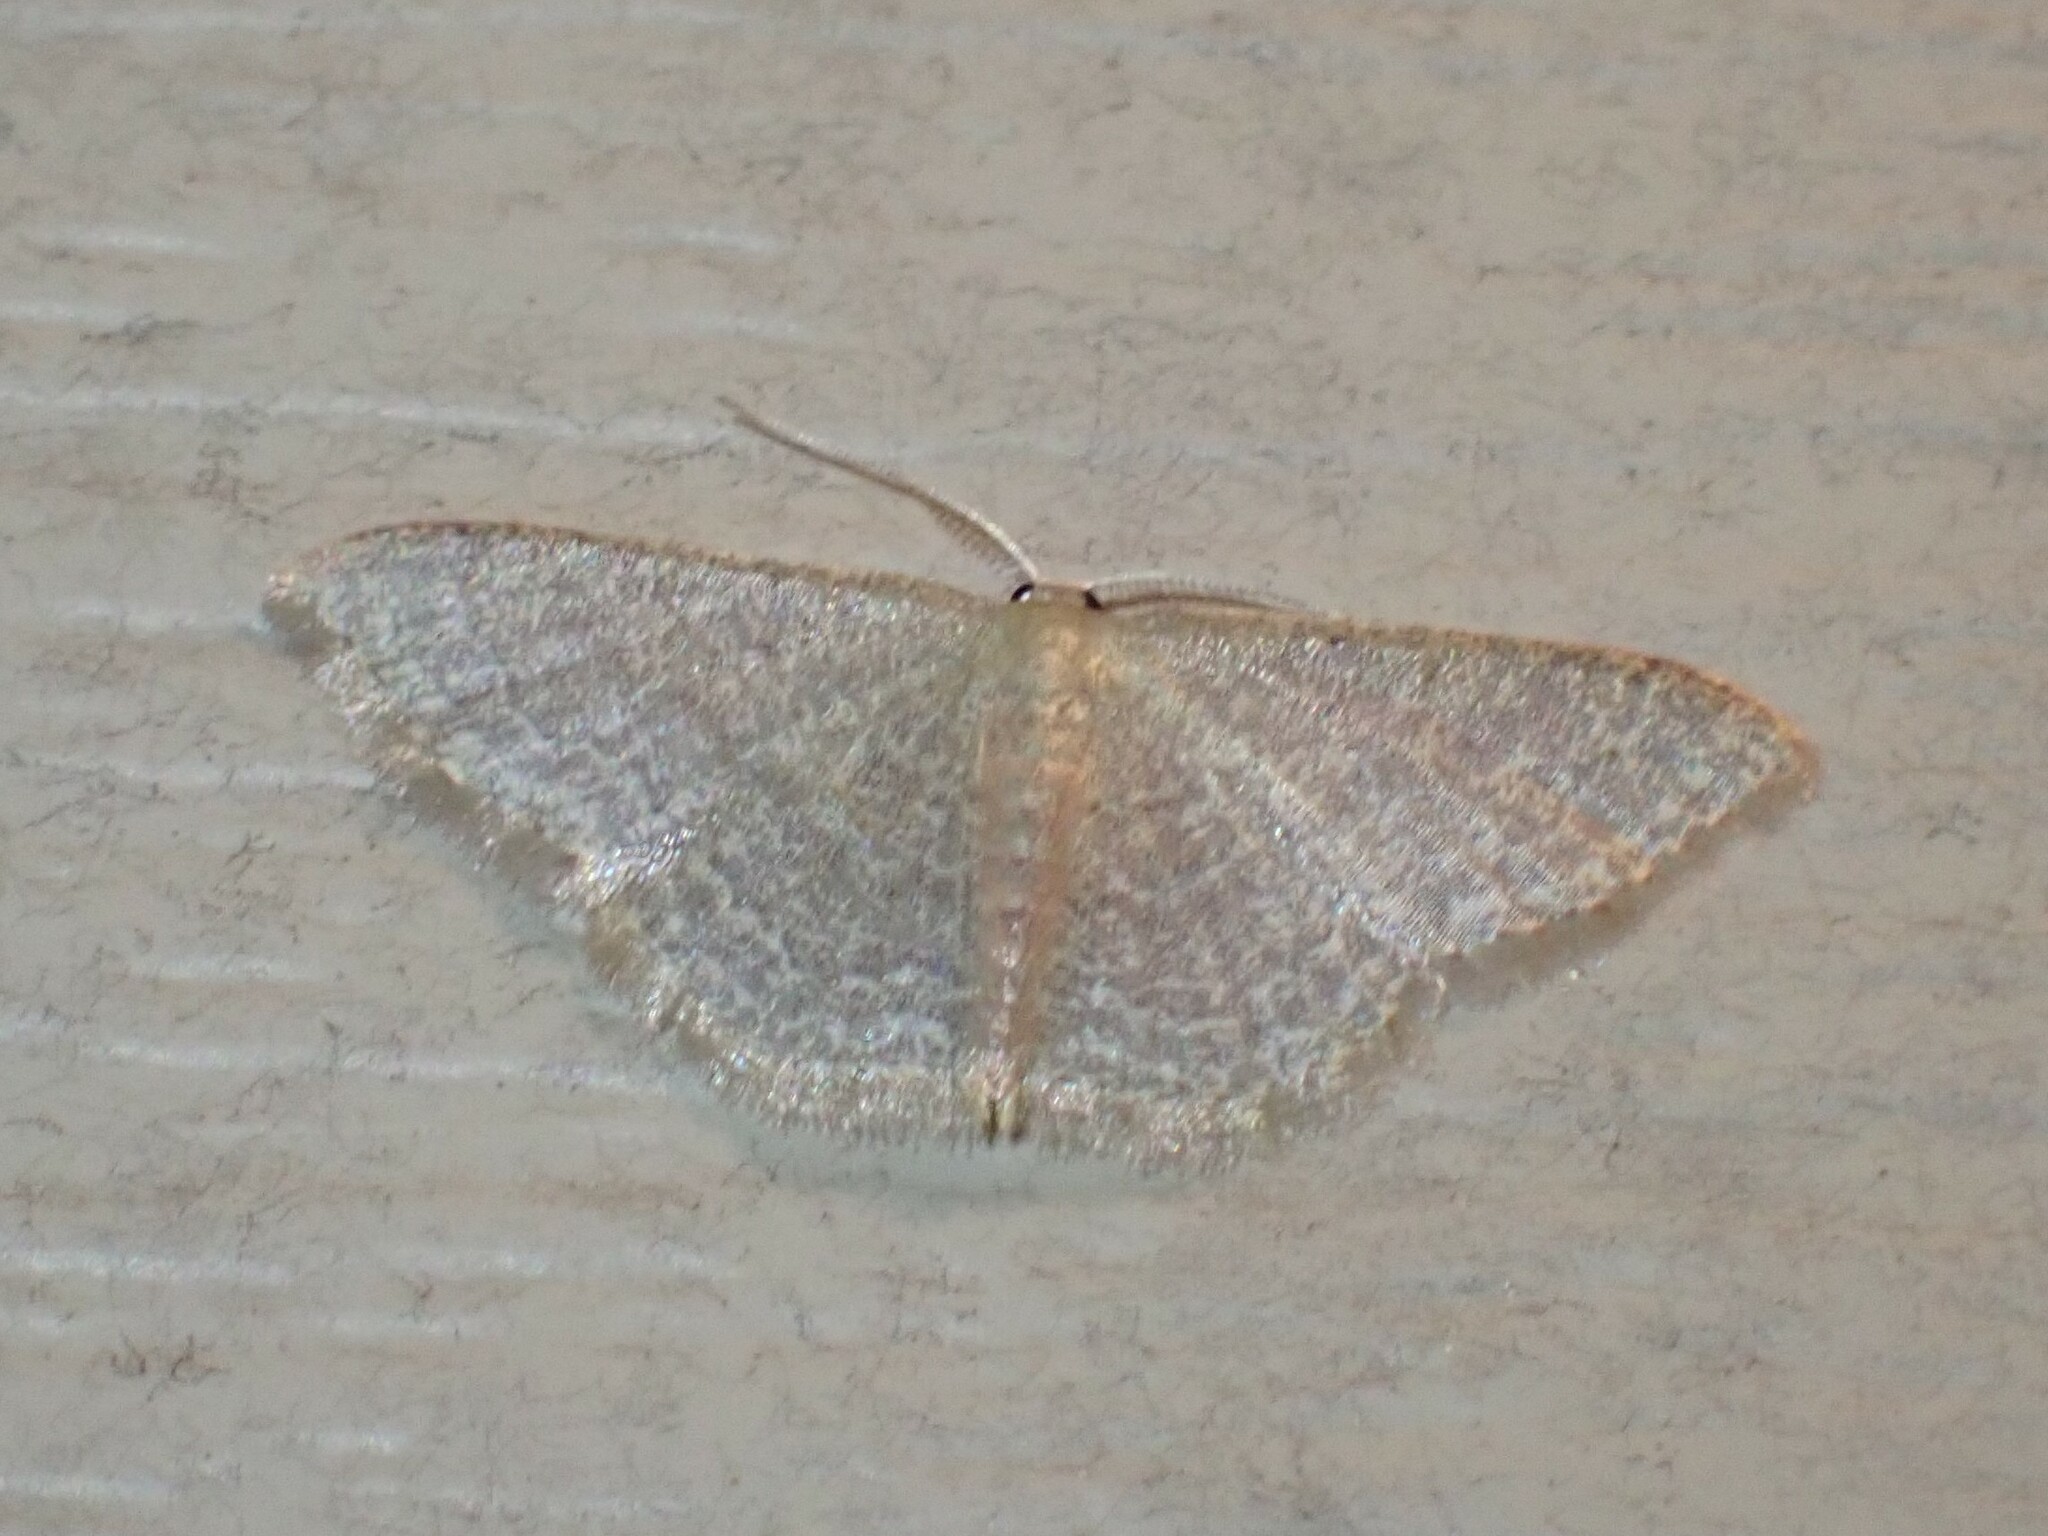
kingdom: Animalia
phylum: Arthropoda
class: Insecta
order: Lepidoptera
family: Geometridae
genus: Pleuroprucha
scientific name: Pleuroprucha insulsaria
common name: Common tan wave
